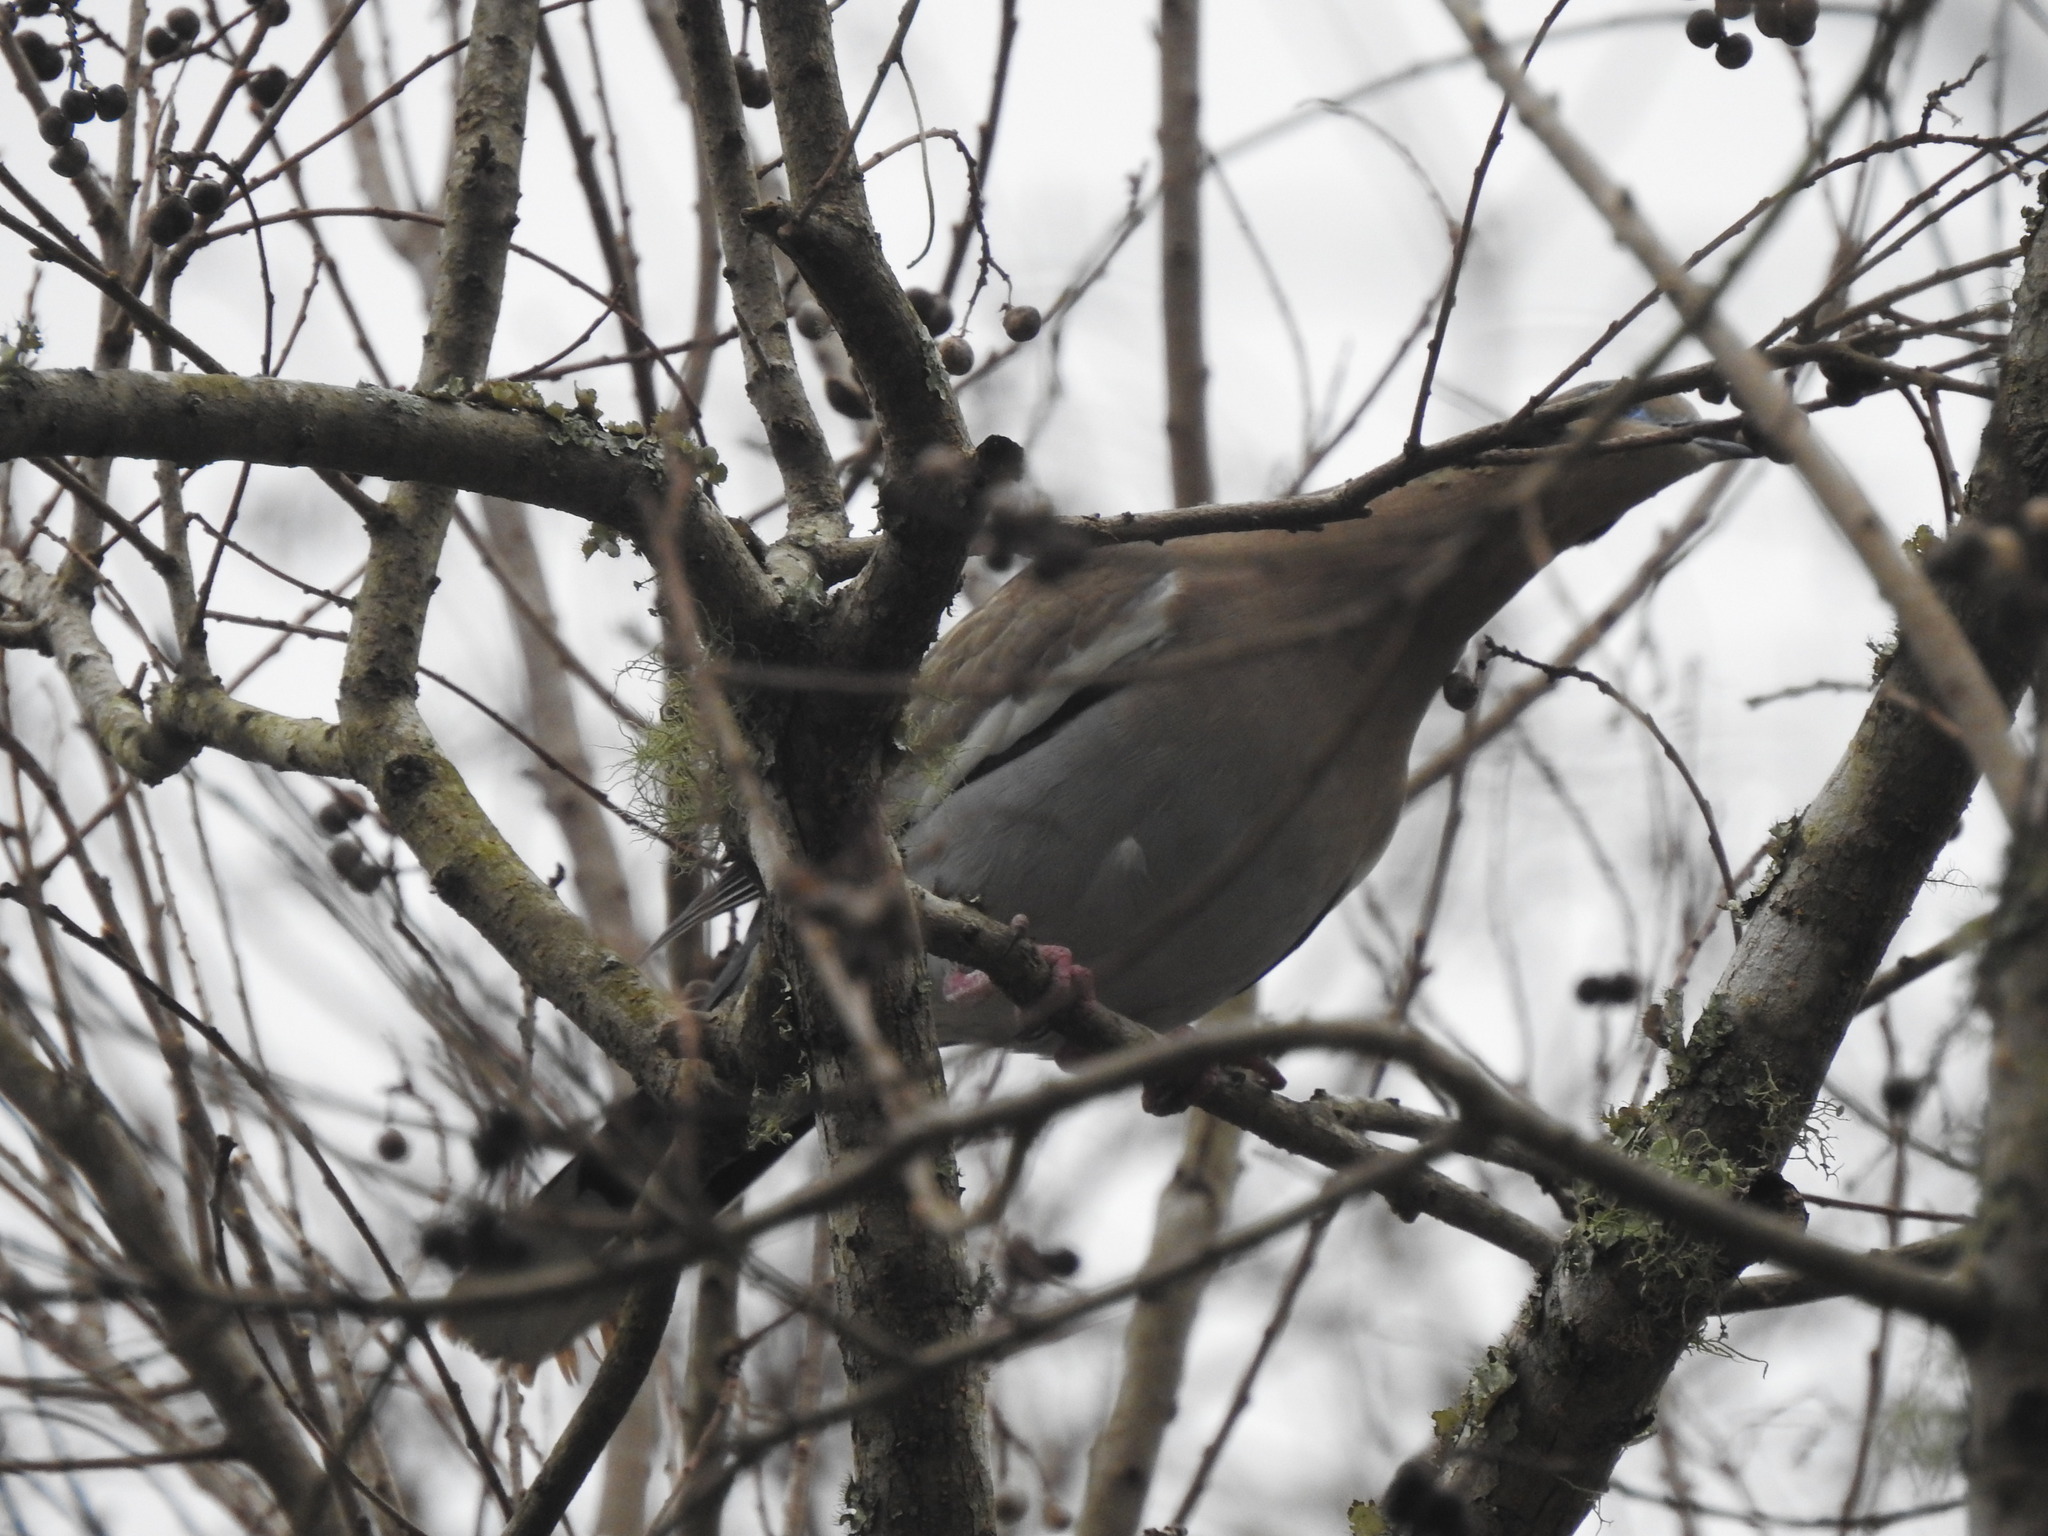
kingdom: Animalia
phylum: Chordata
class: Aves
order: Columbiformes
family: Columbidae
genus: Zenaida
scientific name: Zenaida asiatica
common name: White-winged dove
